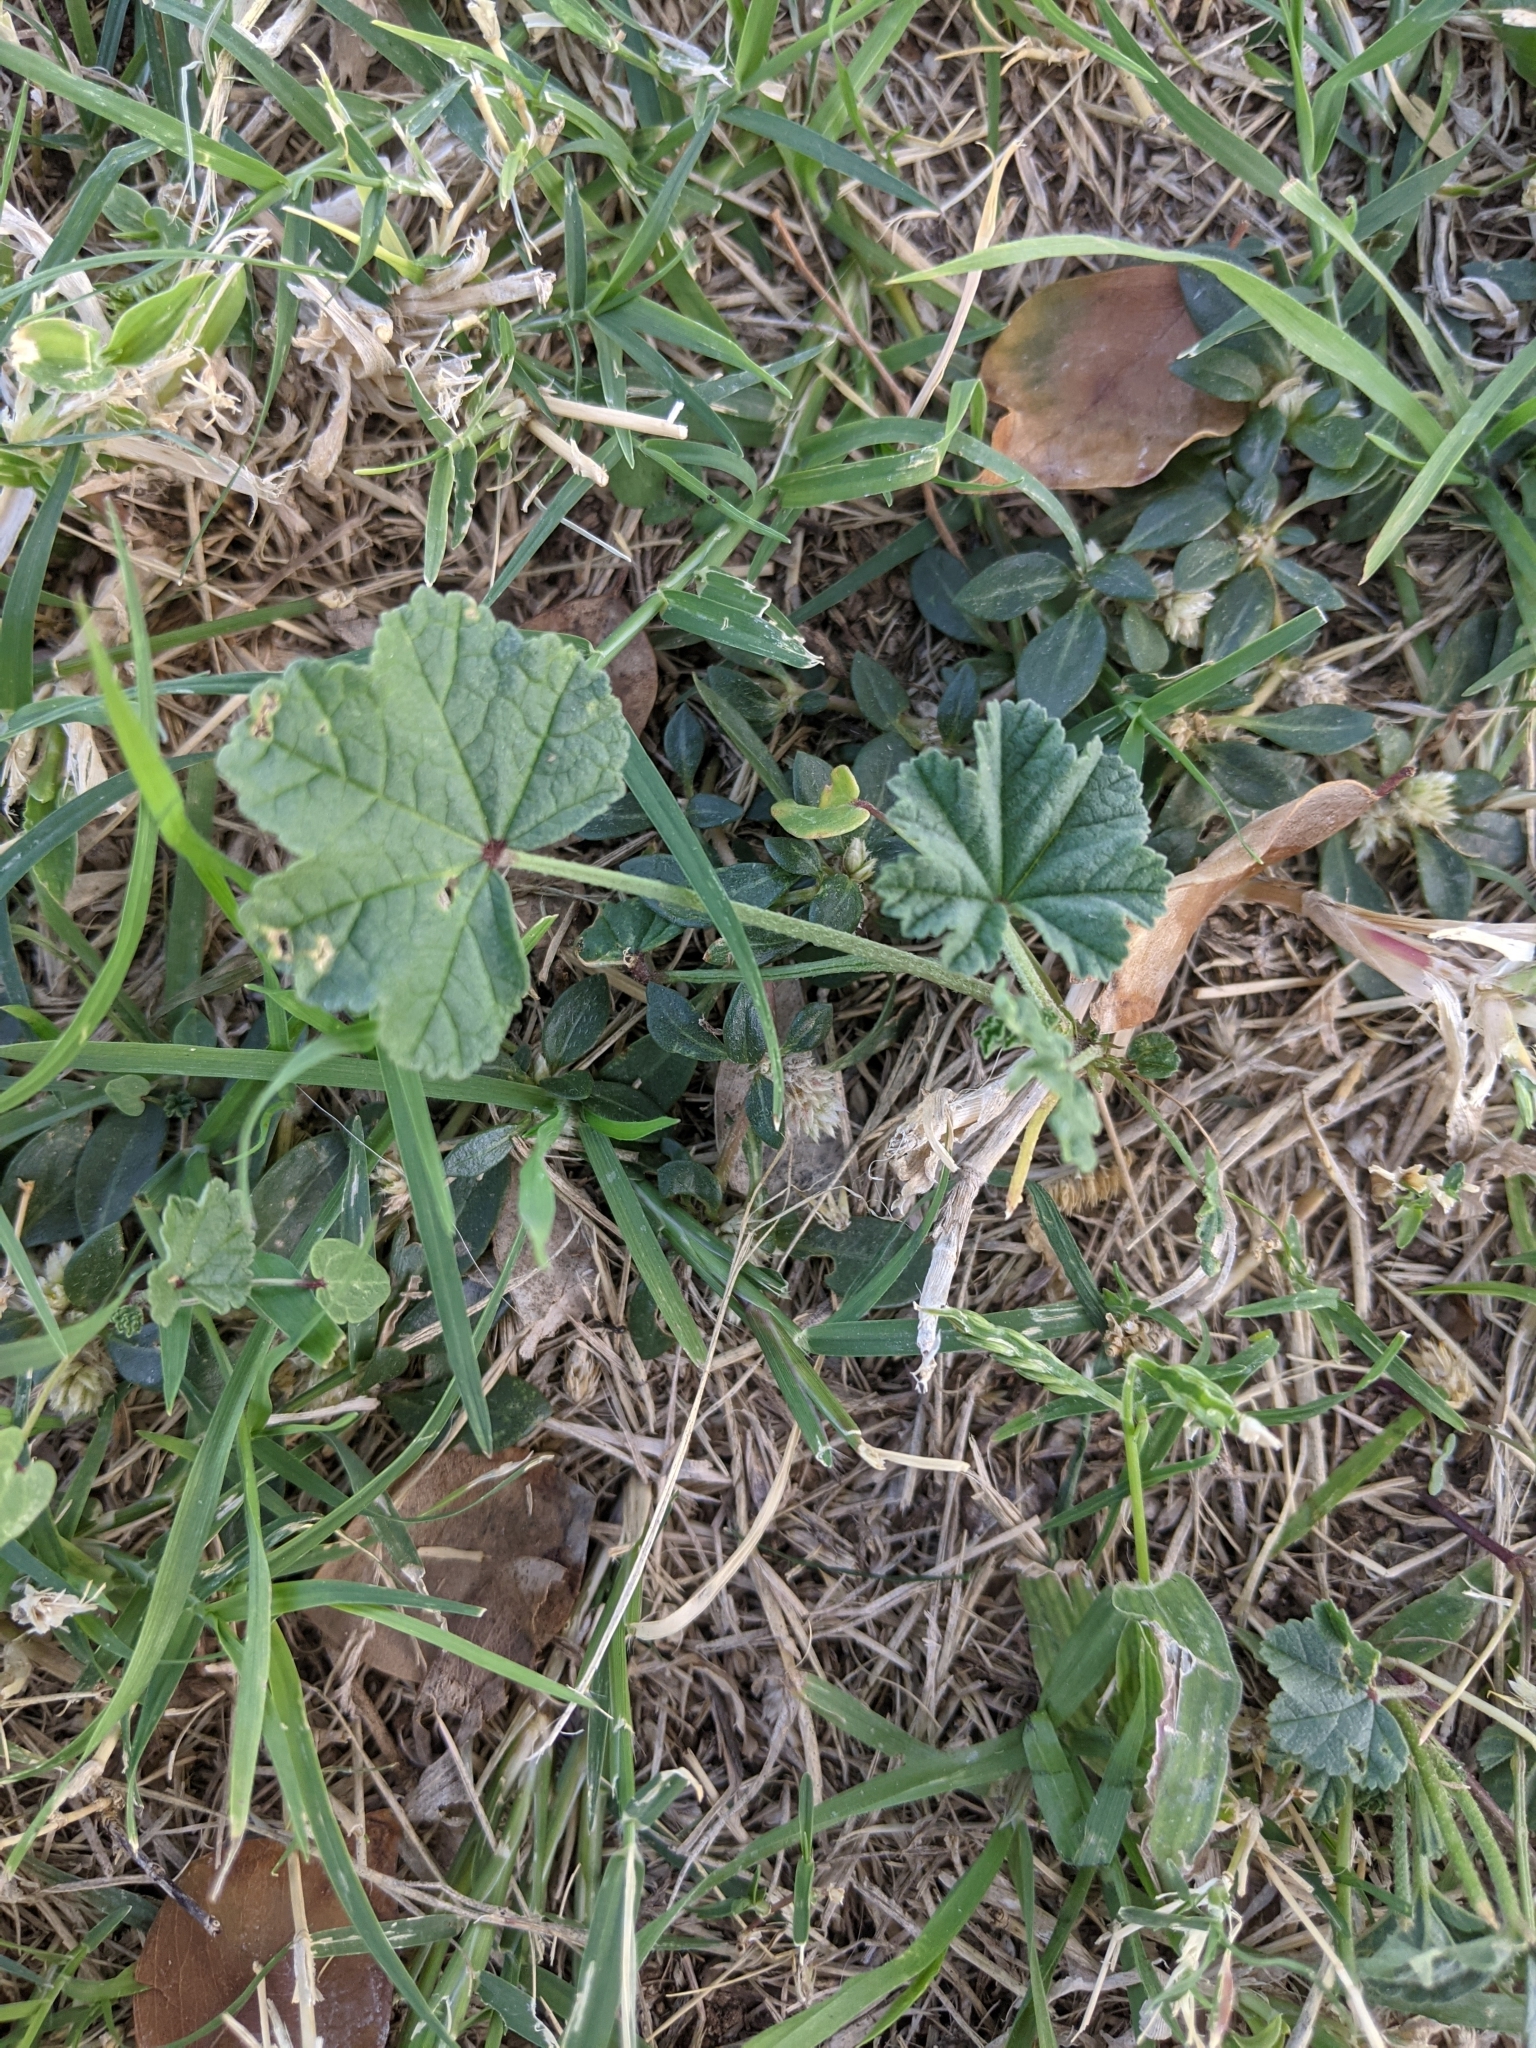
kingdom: Plantae
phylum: Tracheophyta
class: Magnoliopsida
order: Malvales
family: Malvaceae
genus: Malva
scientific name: Malva parviflora
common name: Least mallow
